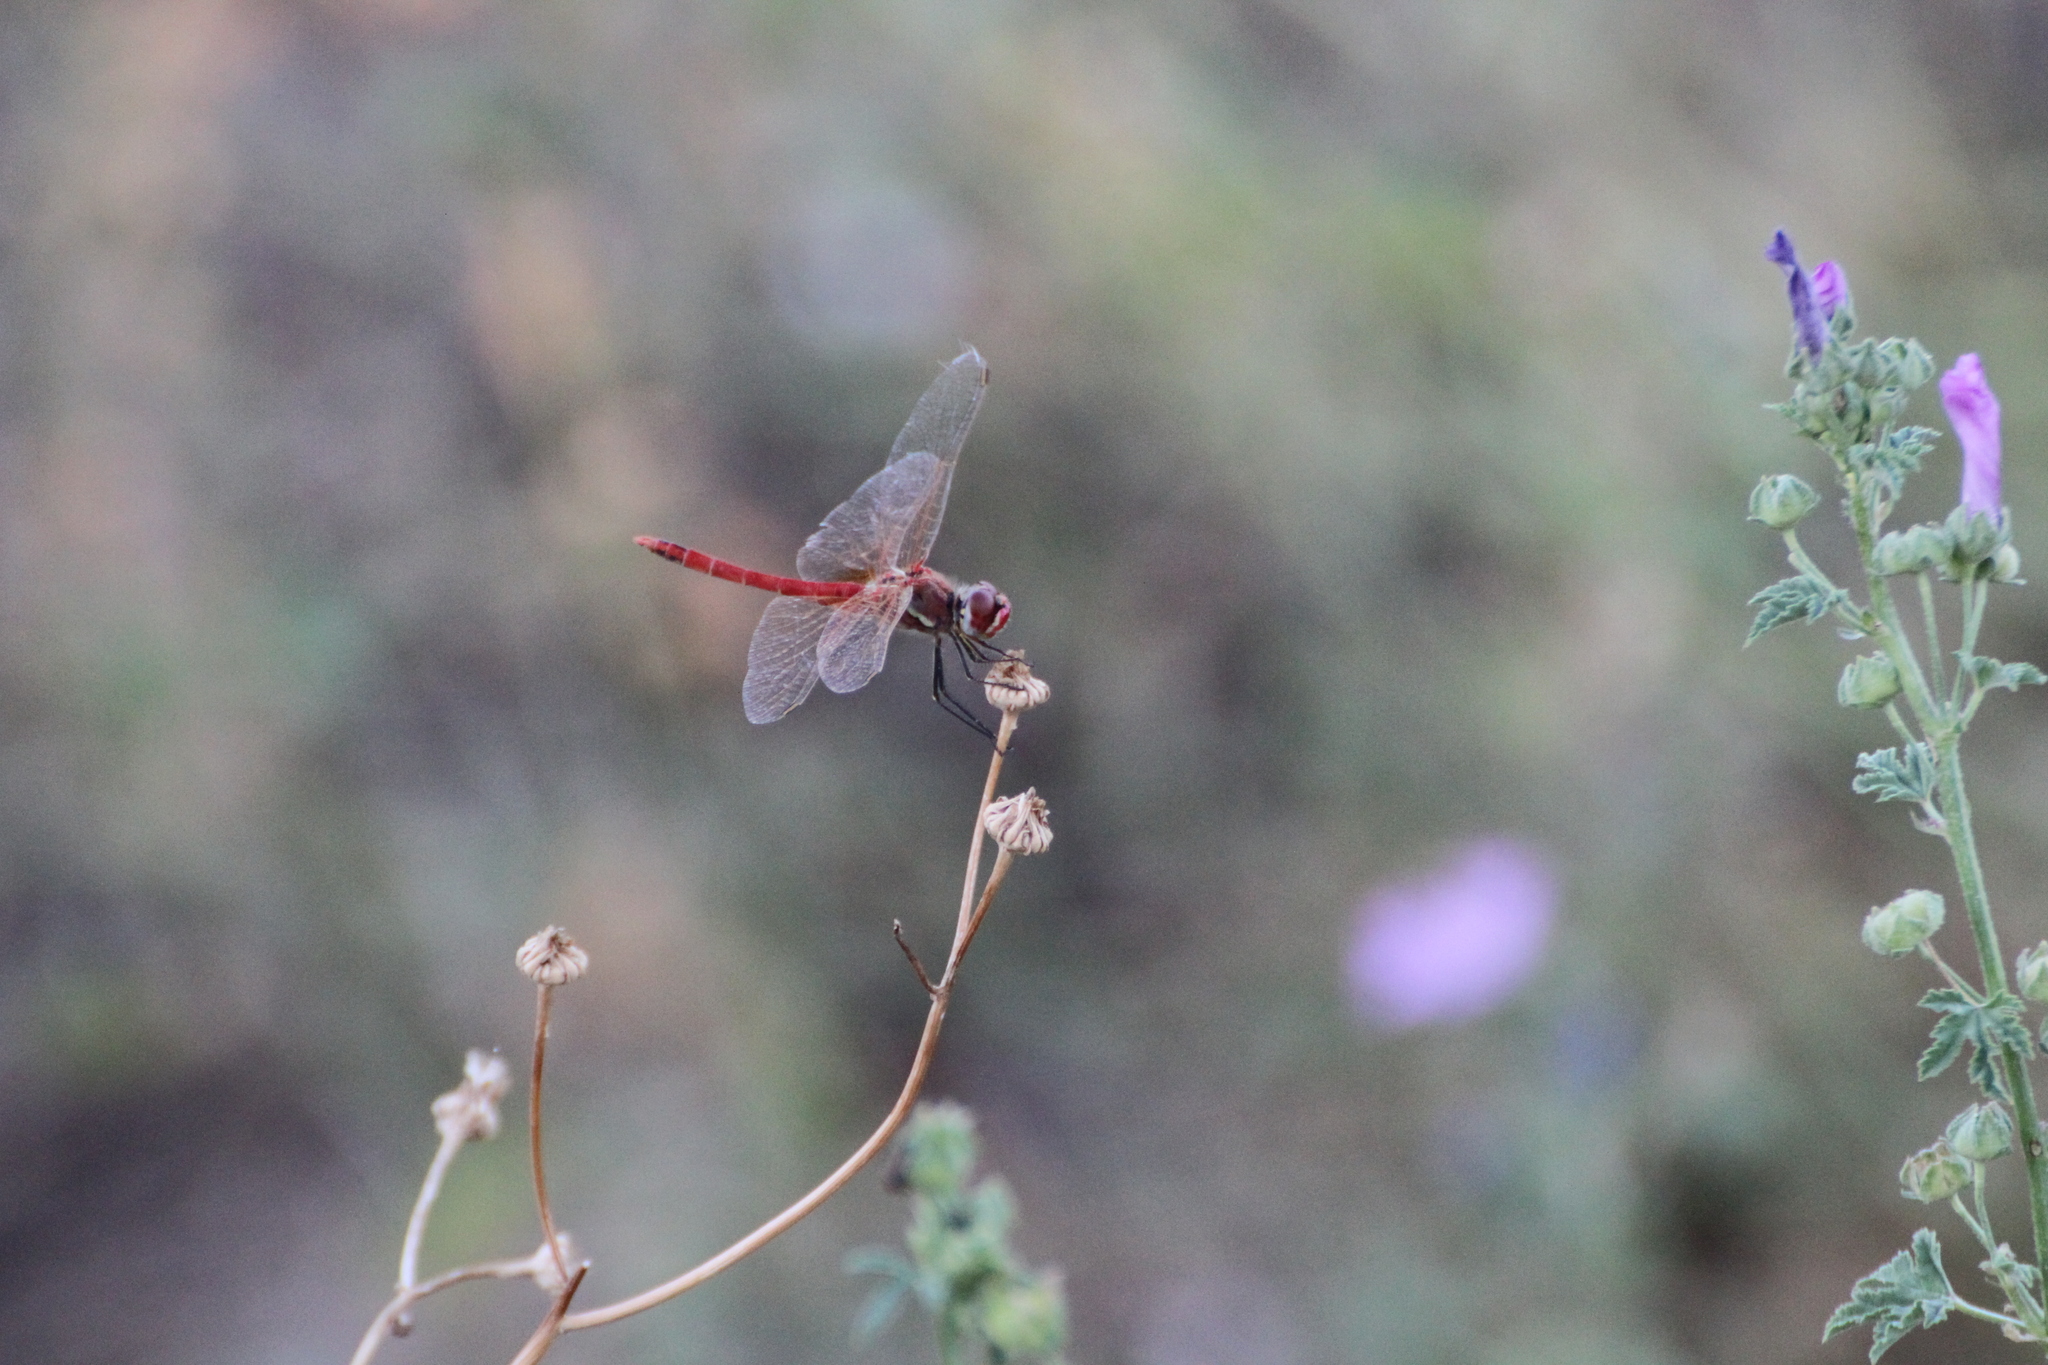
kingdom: Animalia
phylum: Arthropoda
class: Insecta
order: Odonata
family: Libellulidae
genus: Sympetrum
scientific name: Sympetrum fonscolombii
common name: Red-veined darter
